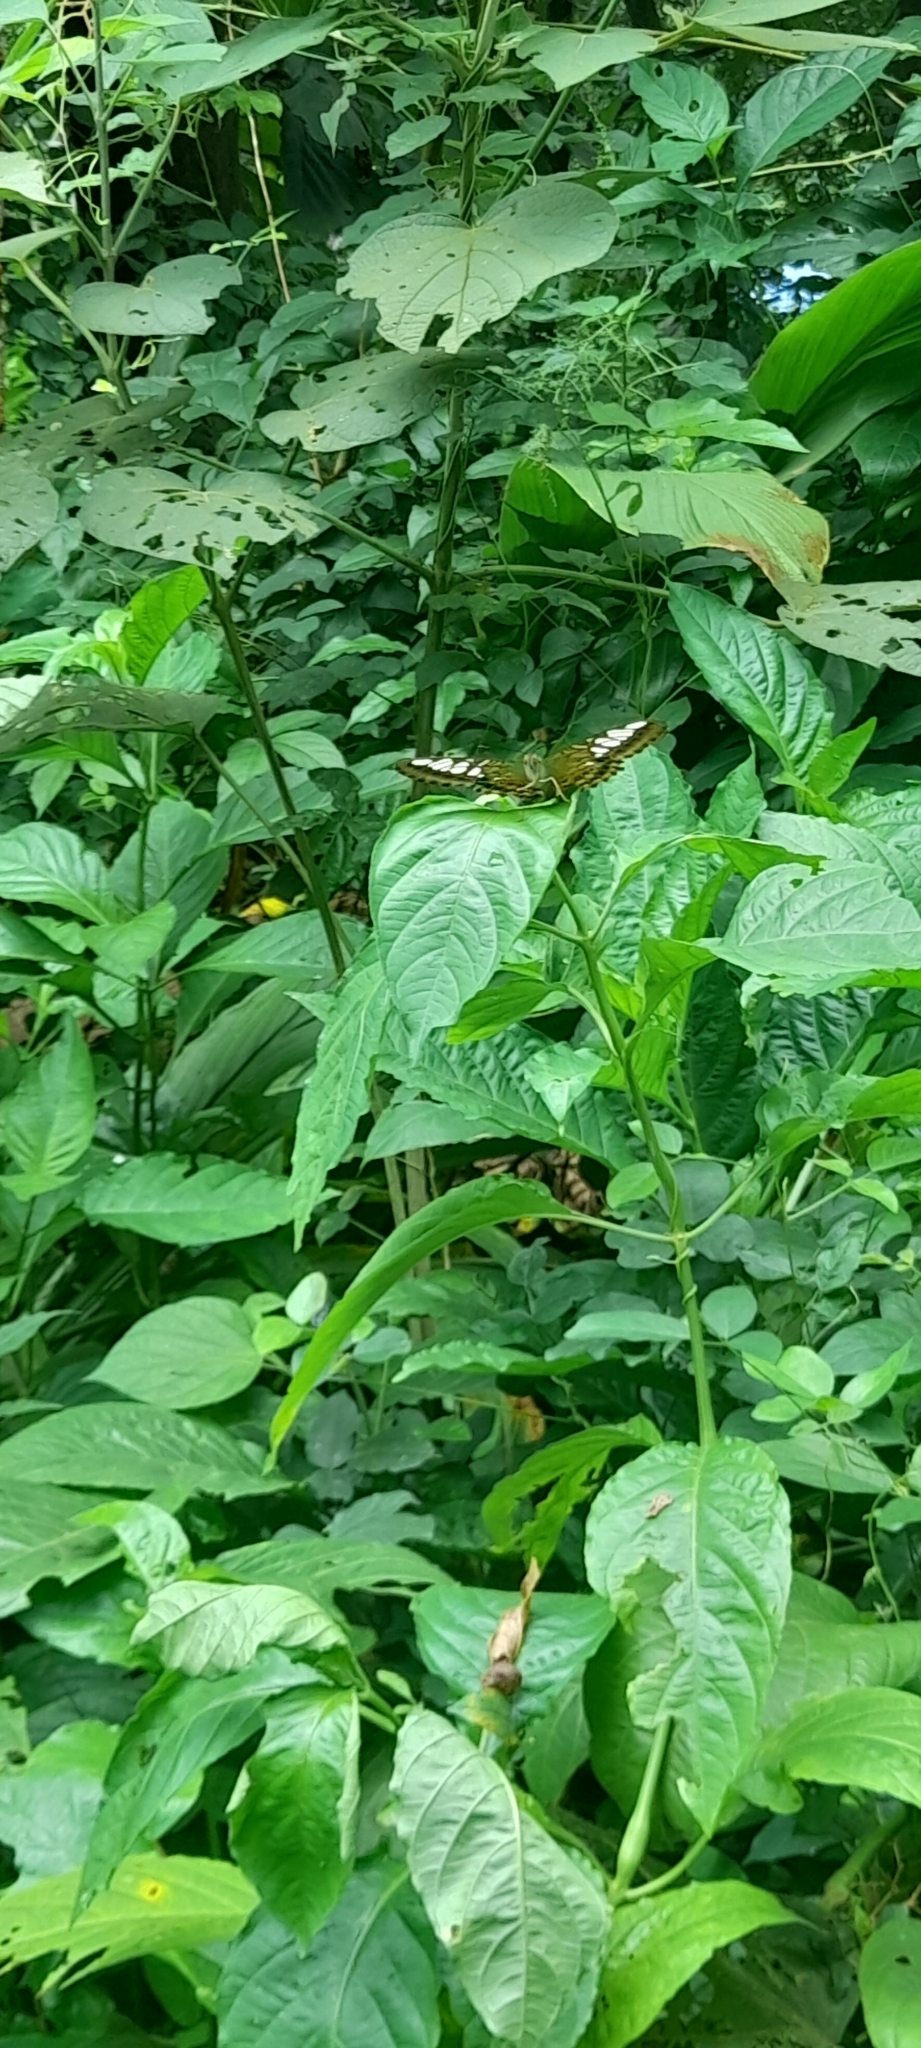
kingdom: Animalia
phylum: Arthropoda
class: Insecta
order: Lepidoptera
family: Nymphalidae
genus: Kallima
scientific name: Kallima sylvia
